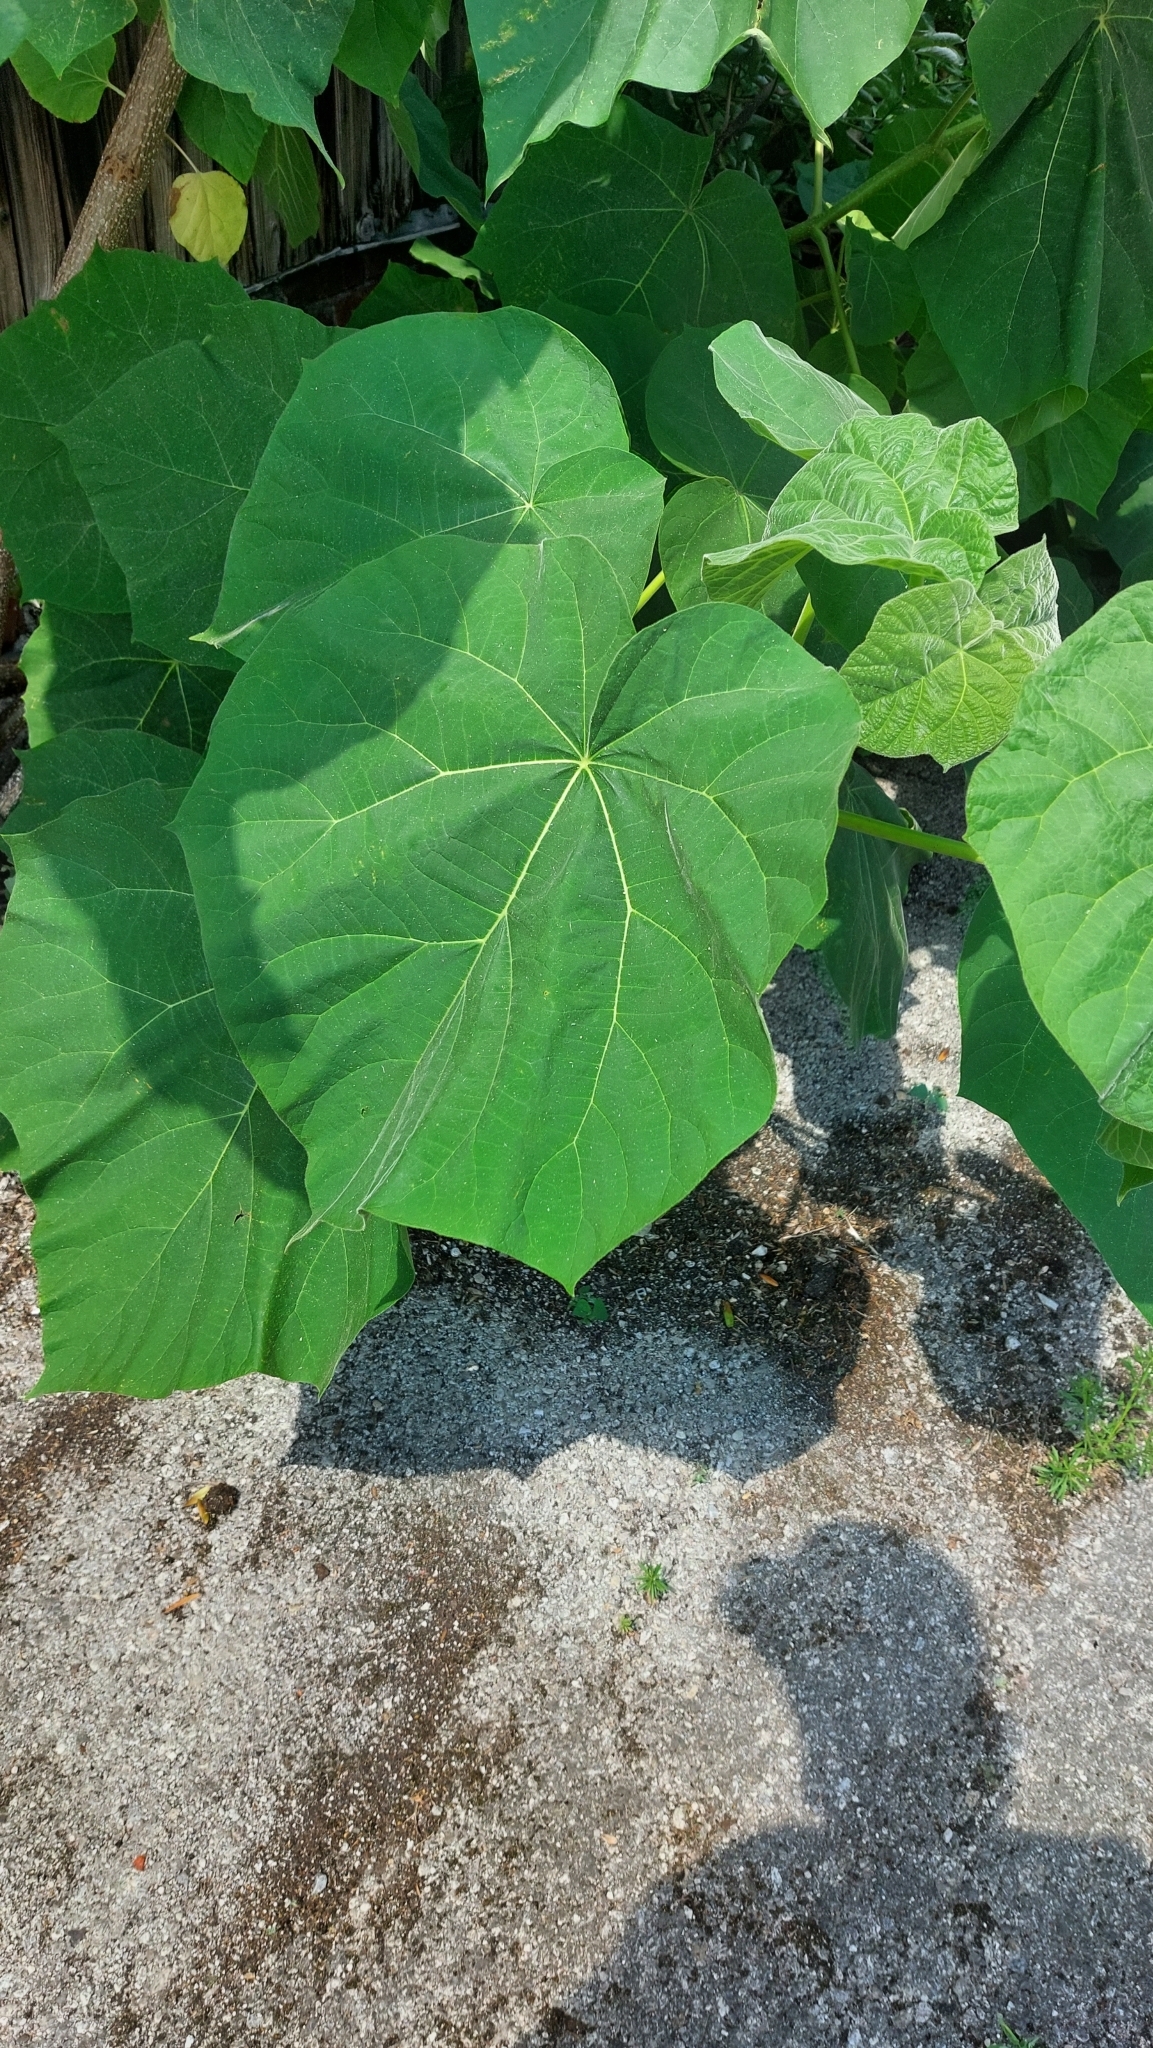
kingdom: Plantae
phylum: Tracheophyta
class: Magnoliopsida
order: Lamiales
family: Paulowniaceae
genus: Paulownia
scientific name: Paulownia tomentosa
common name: Foxglove-tree
